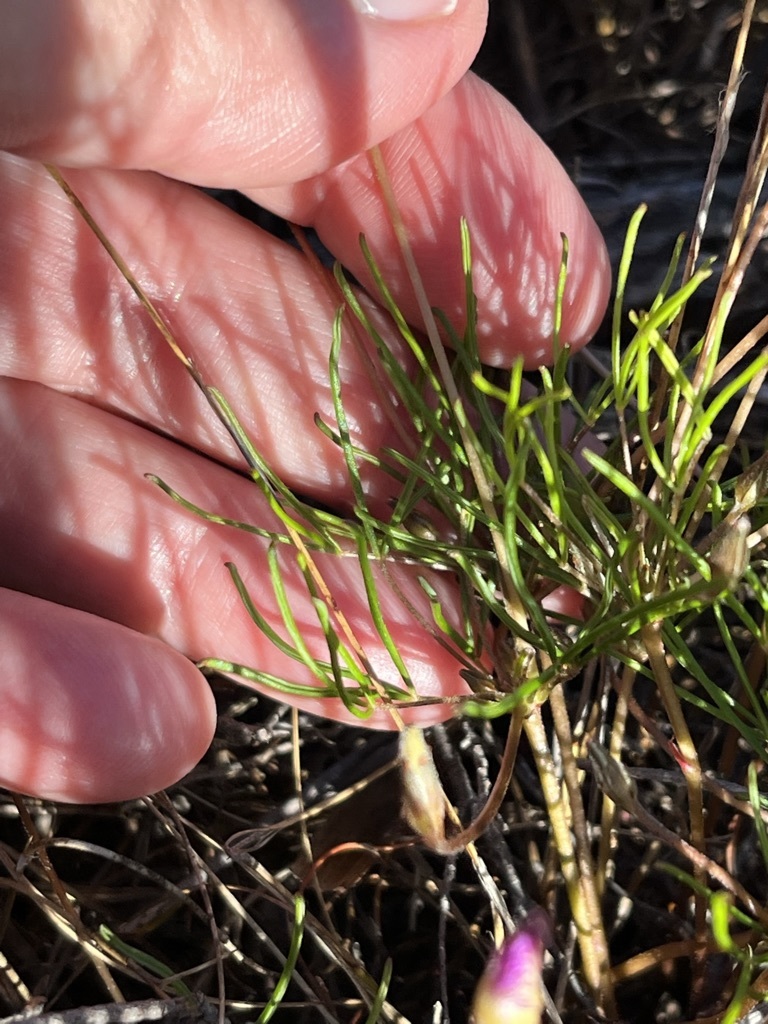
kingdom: Plantae
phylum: Tracheophyta
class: Magnoliopsida
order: Oxalidales
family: Oxalidaceae
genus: Oxalis
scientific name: Oxalis polyphylla
